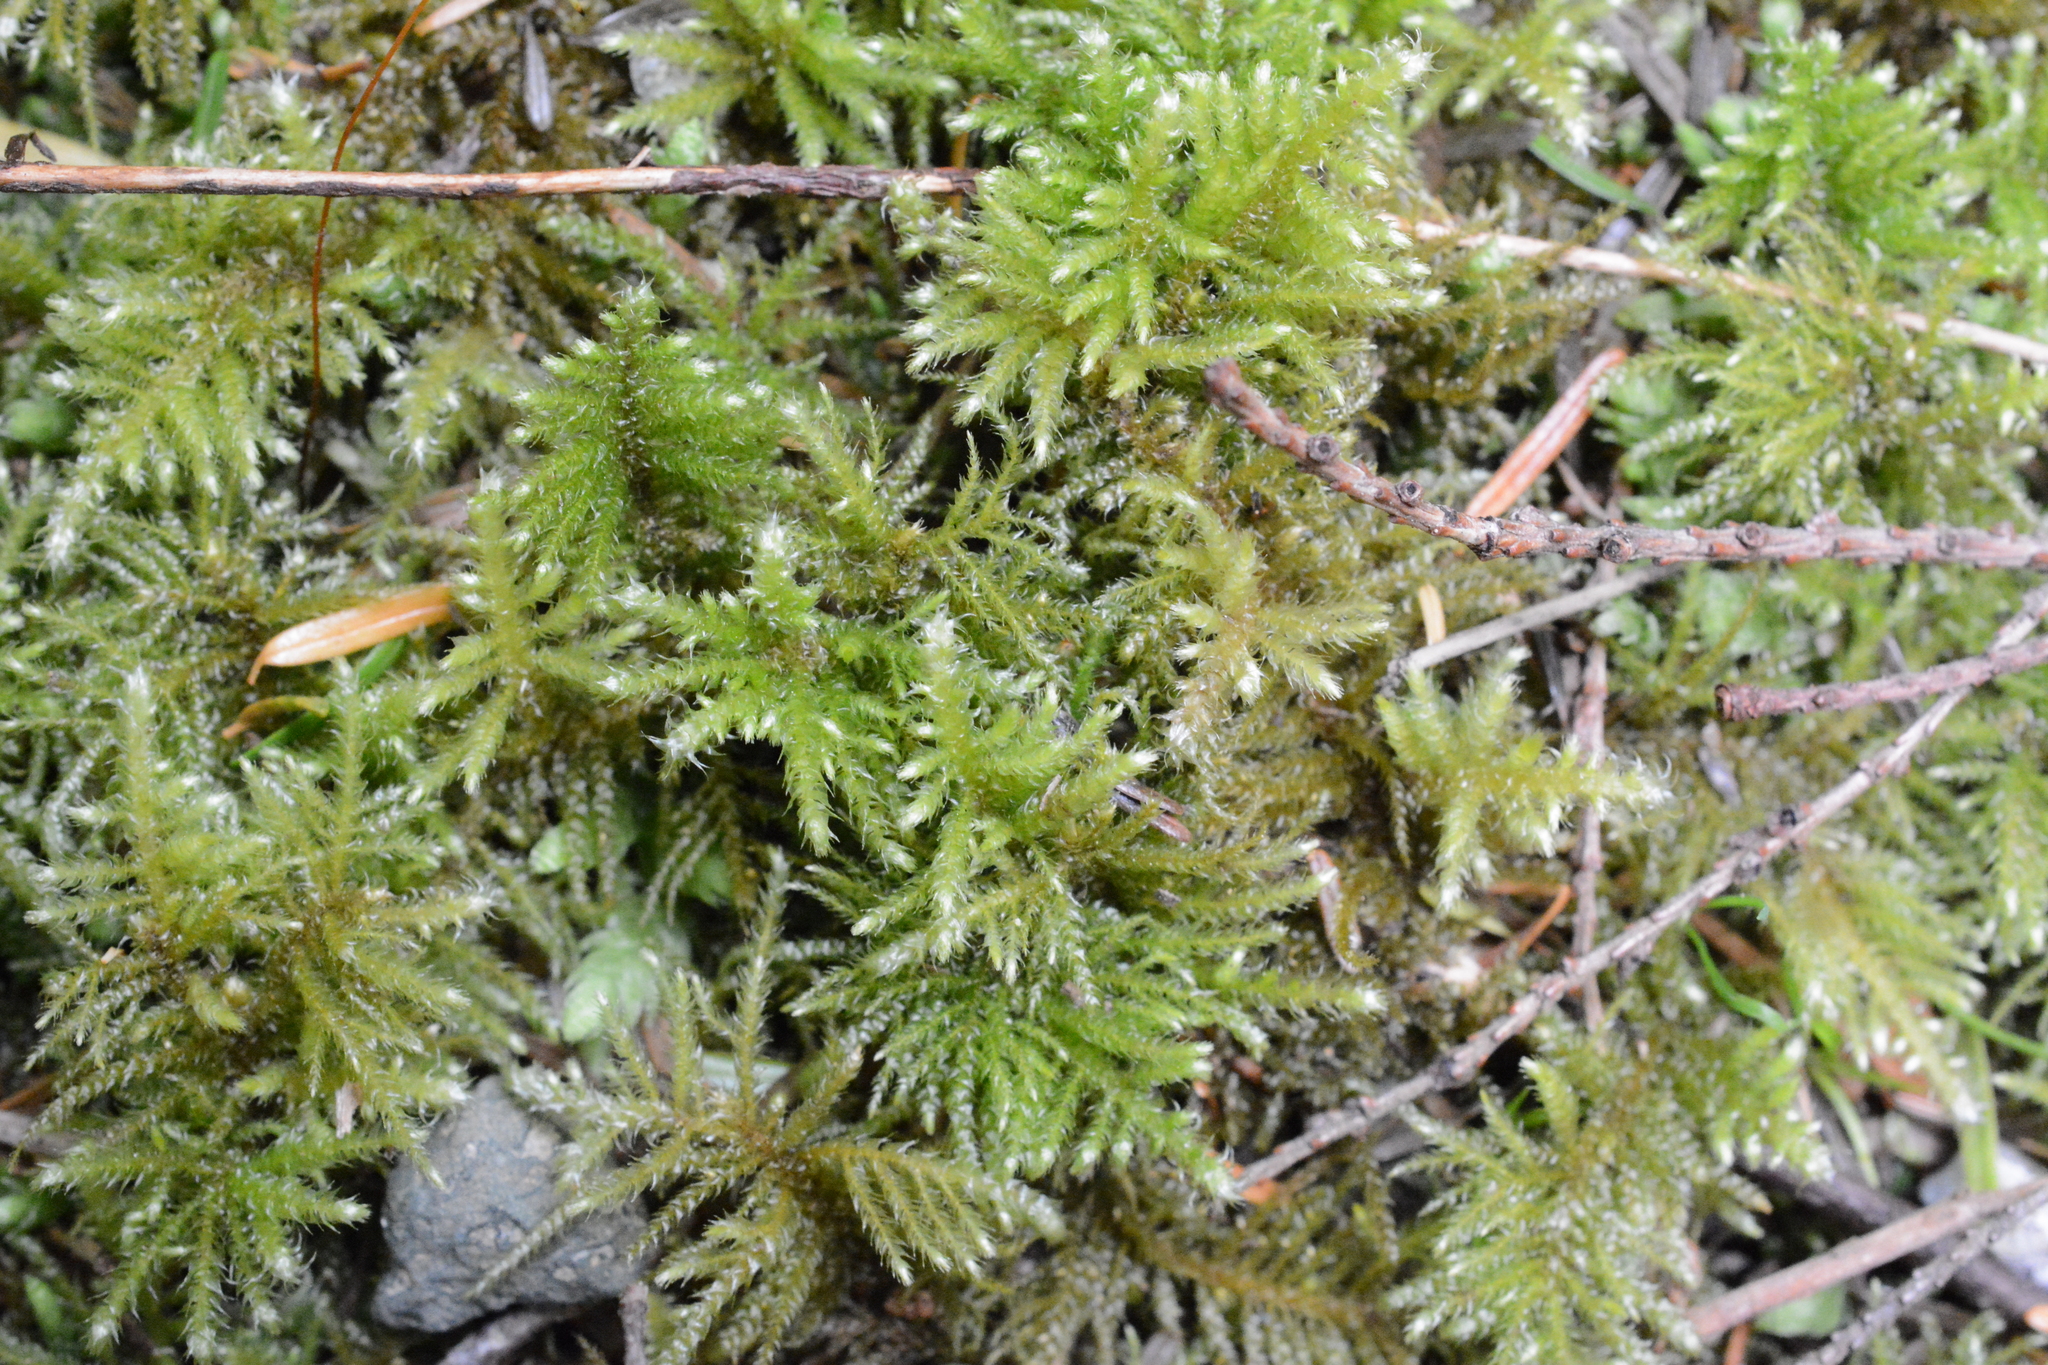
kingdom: Plantae
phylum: Bryophyta
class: Bryopsida
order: Hypnales
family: Brachytheciaceae
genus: Kindbergia
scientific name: Kindbergia oregana
